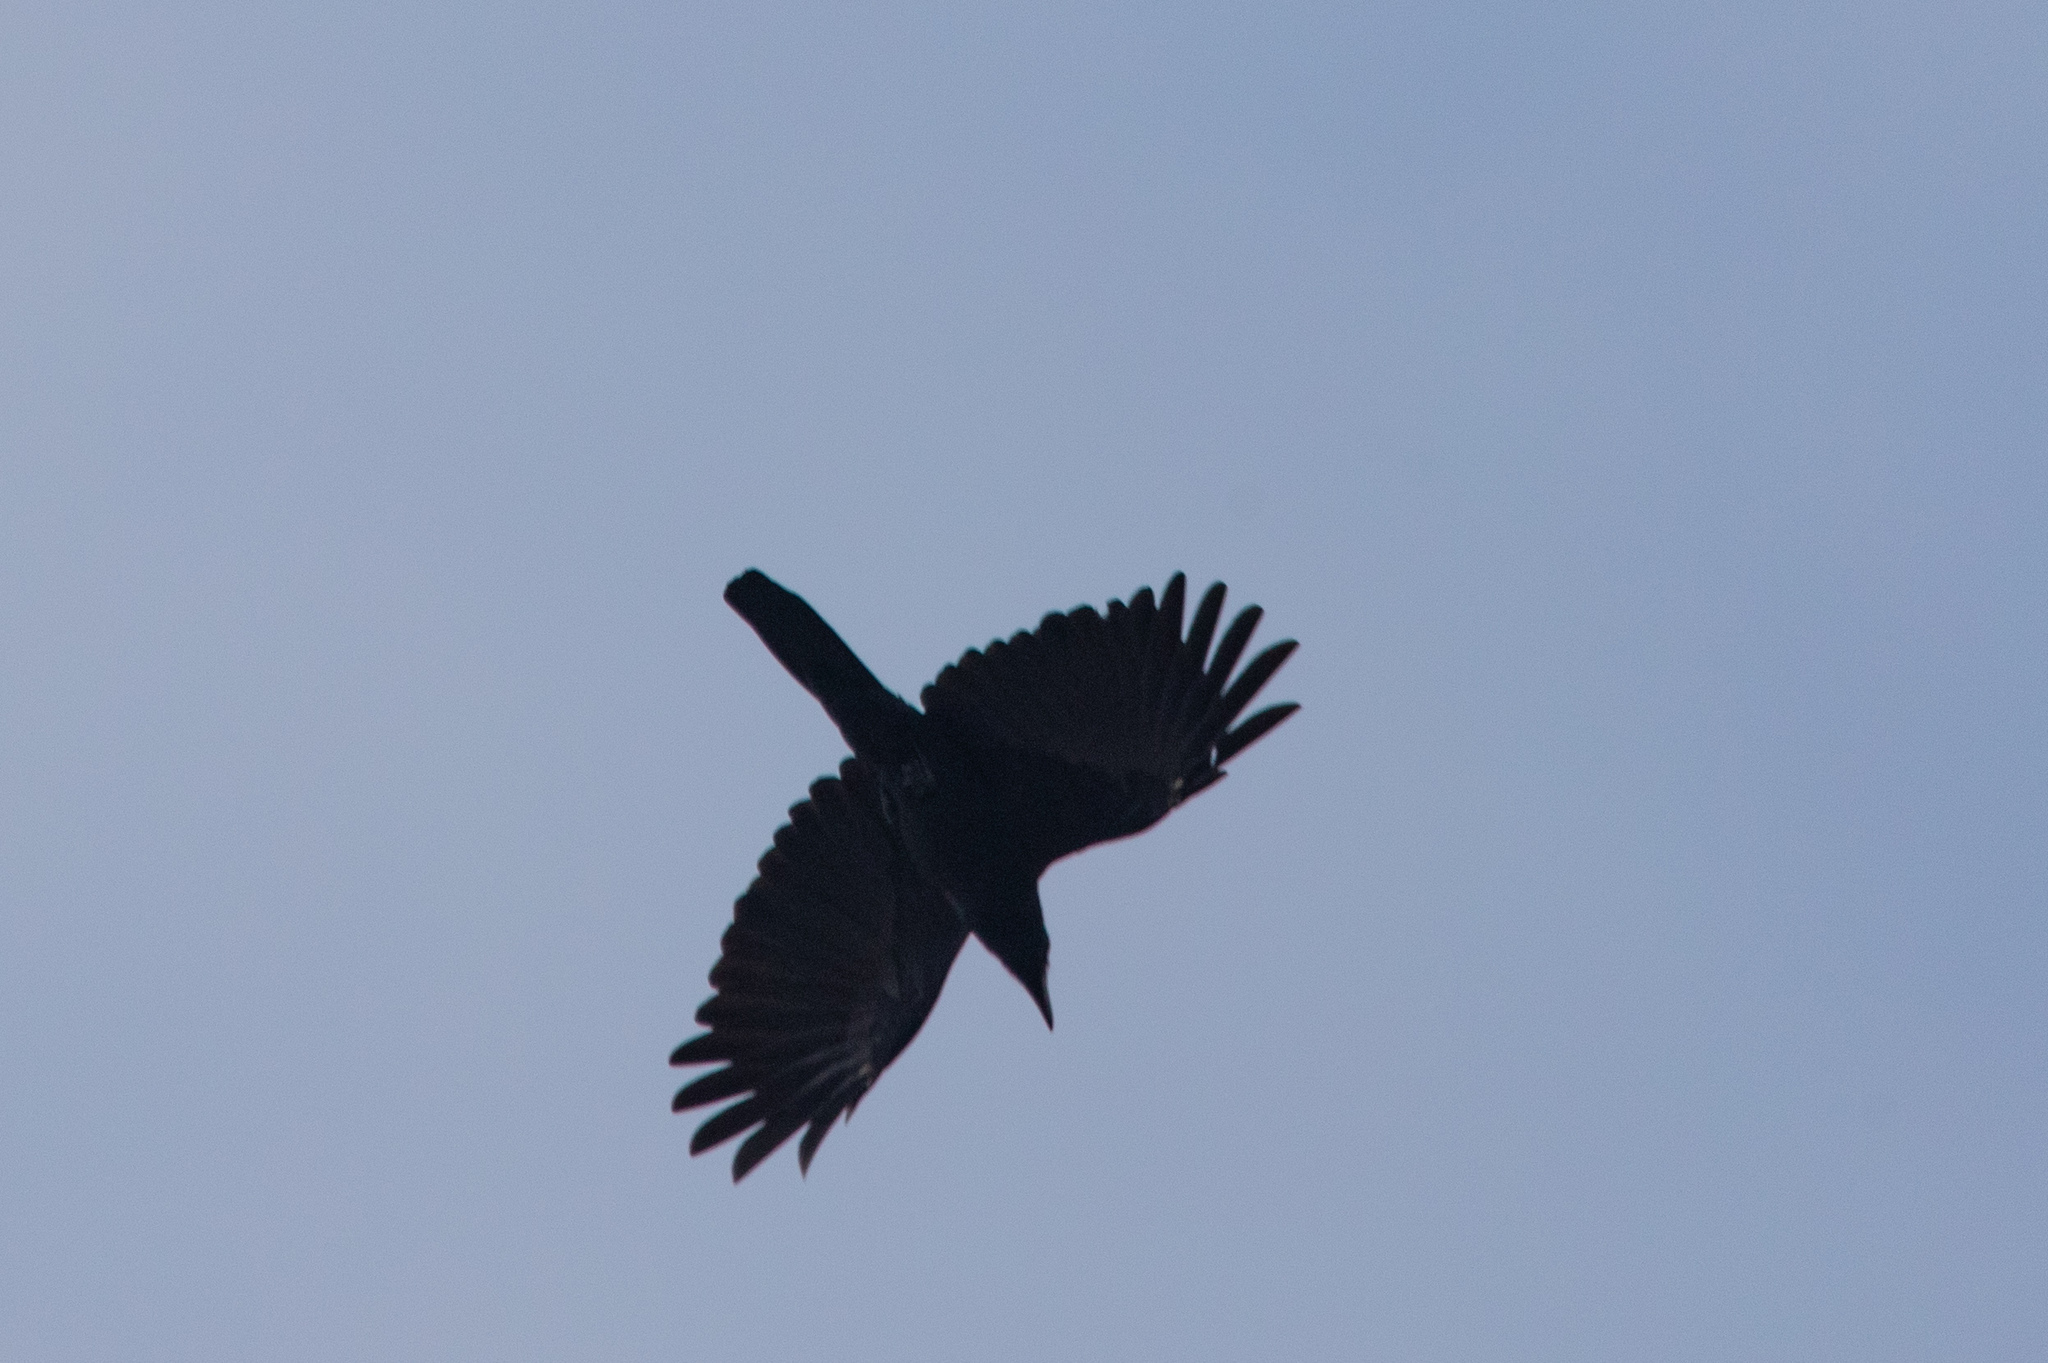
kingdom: Animalia
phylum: Chordata
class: Aves
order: Passeriformes
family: Corvidae
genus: Corvus
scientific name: Corvus macrorhynchos
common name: Large-billed crow
